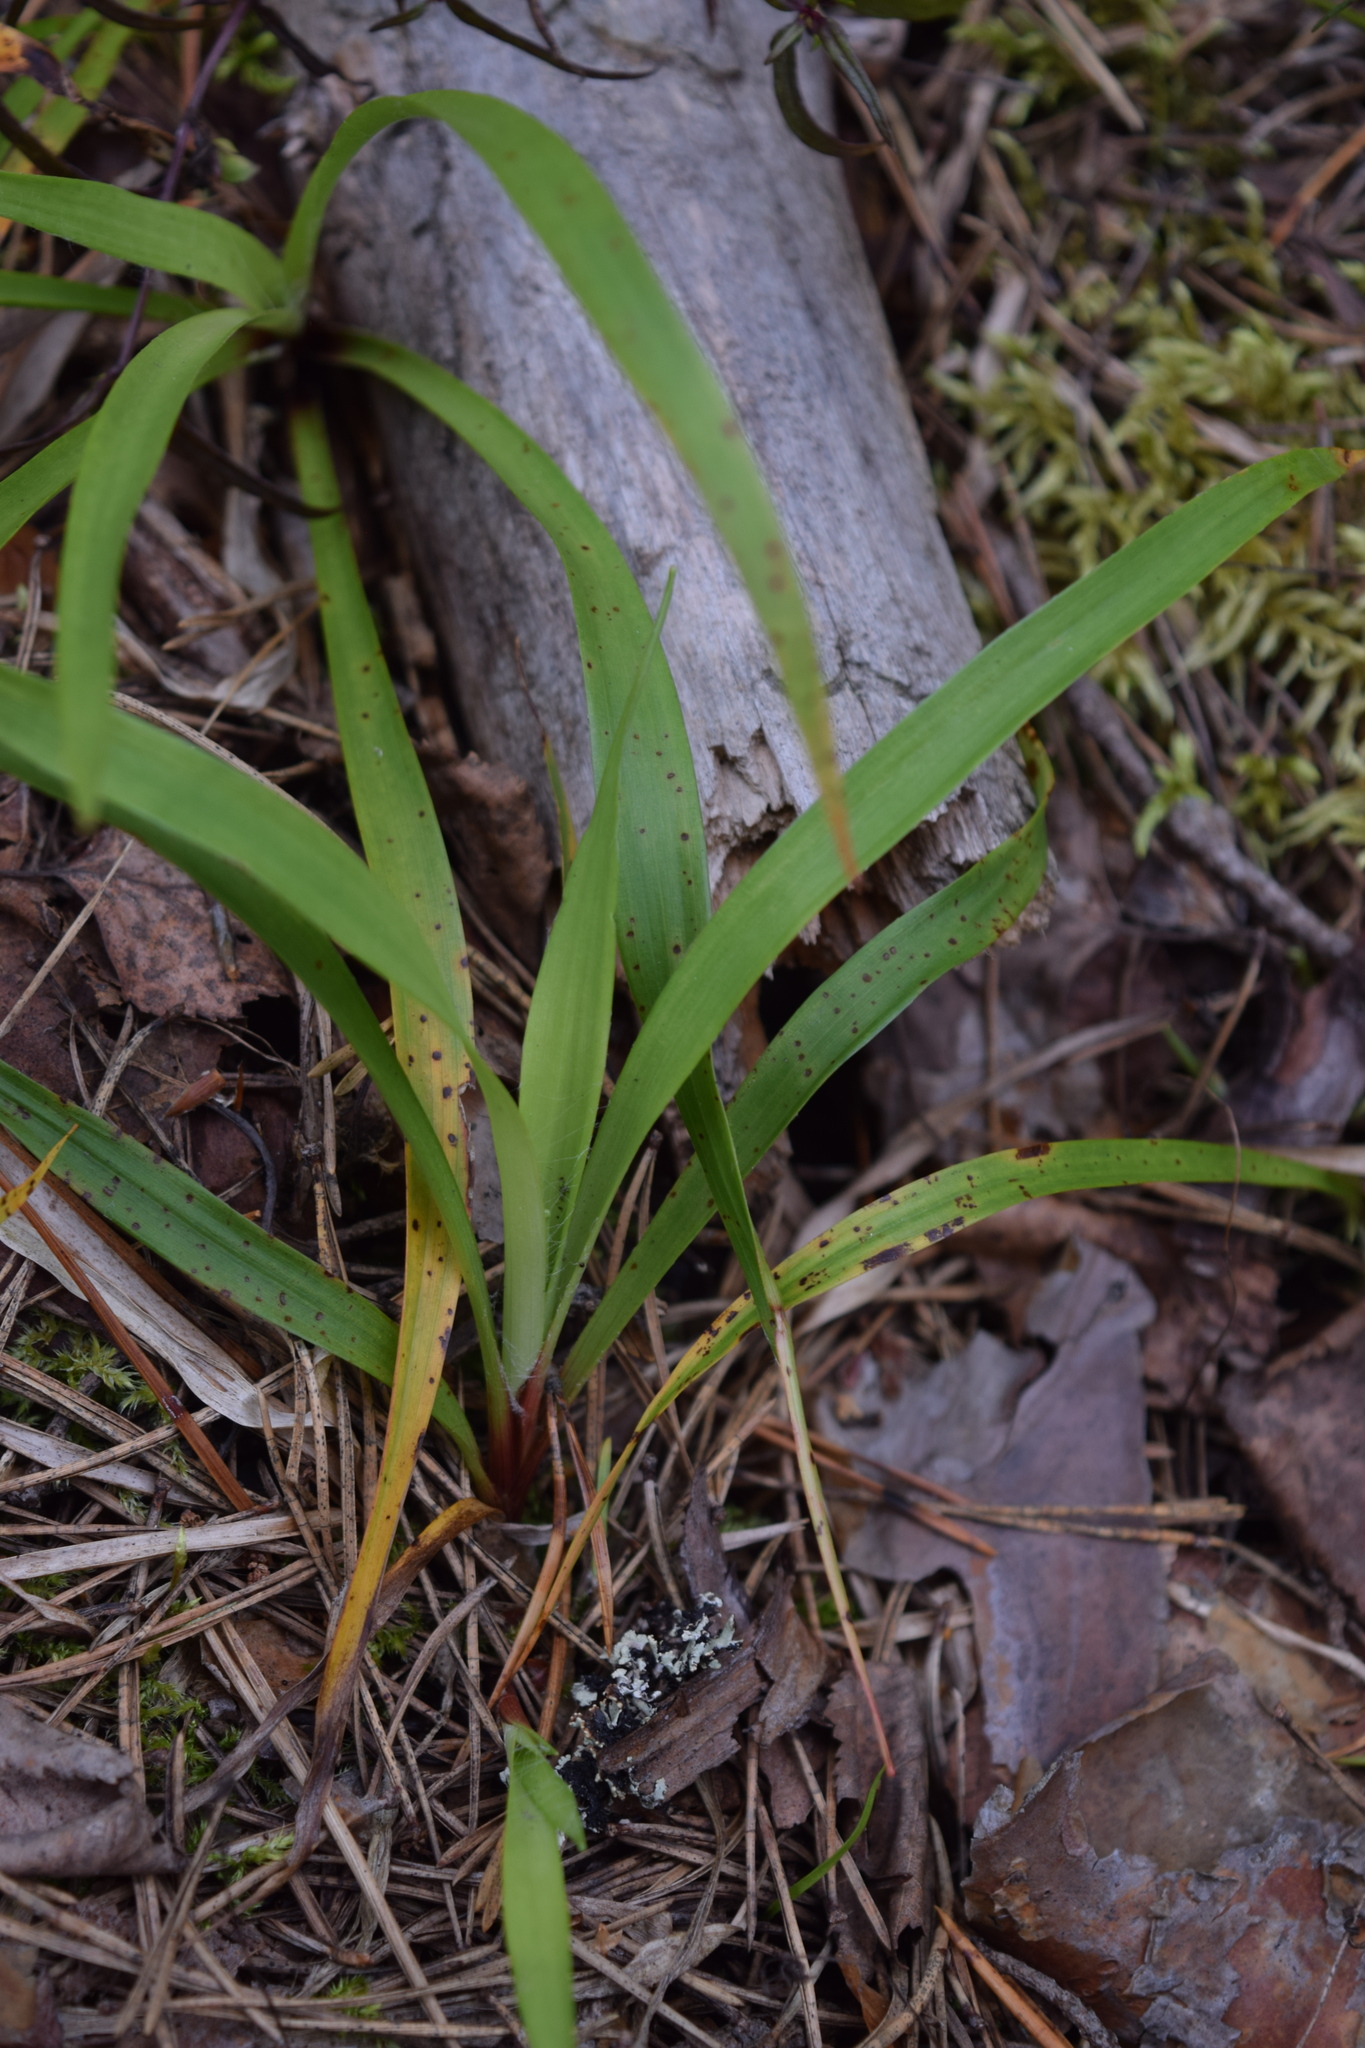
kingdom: Plantae
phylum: Tracheophyta
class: Liliopsida
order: Poales
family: Juncaceae
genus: Luzula
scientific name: Luzula pilosa
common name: Hairy wood-rush
